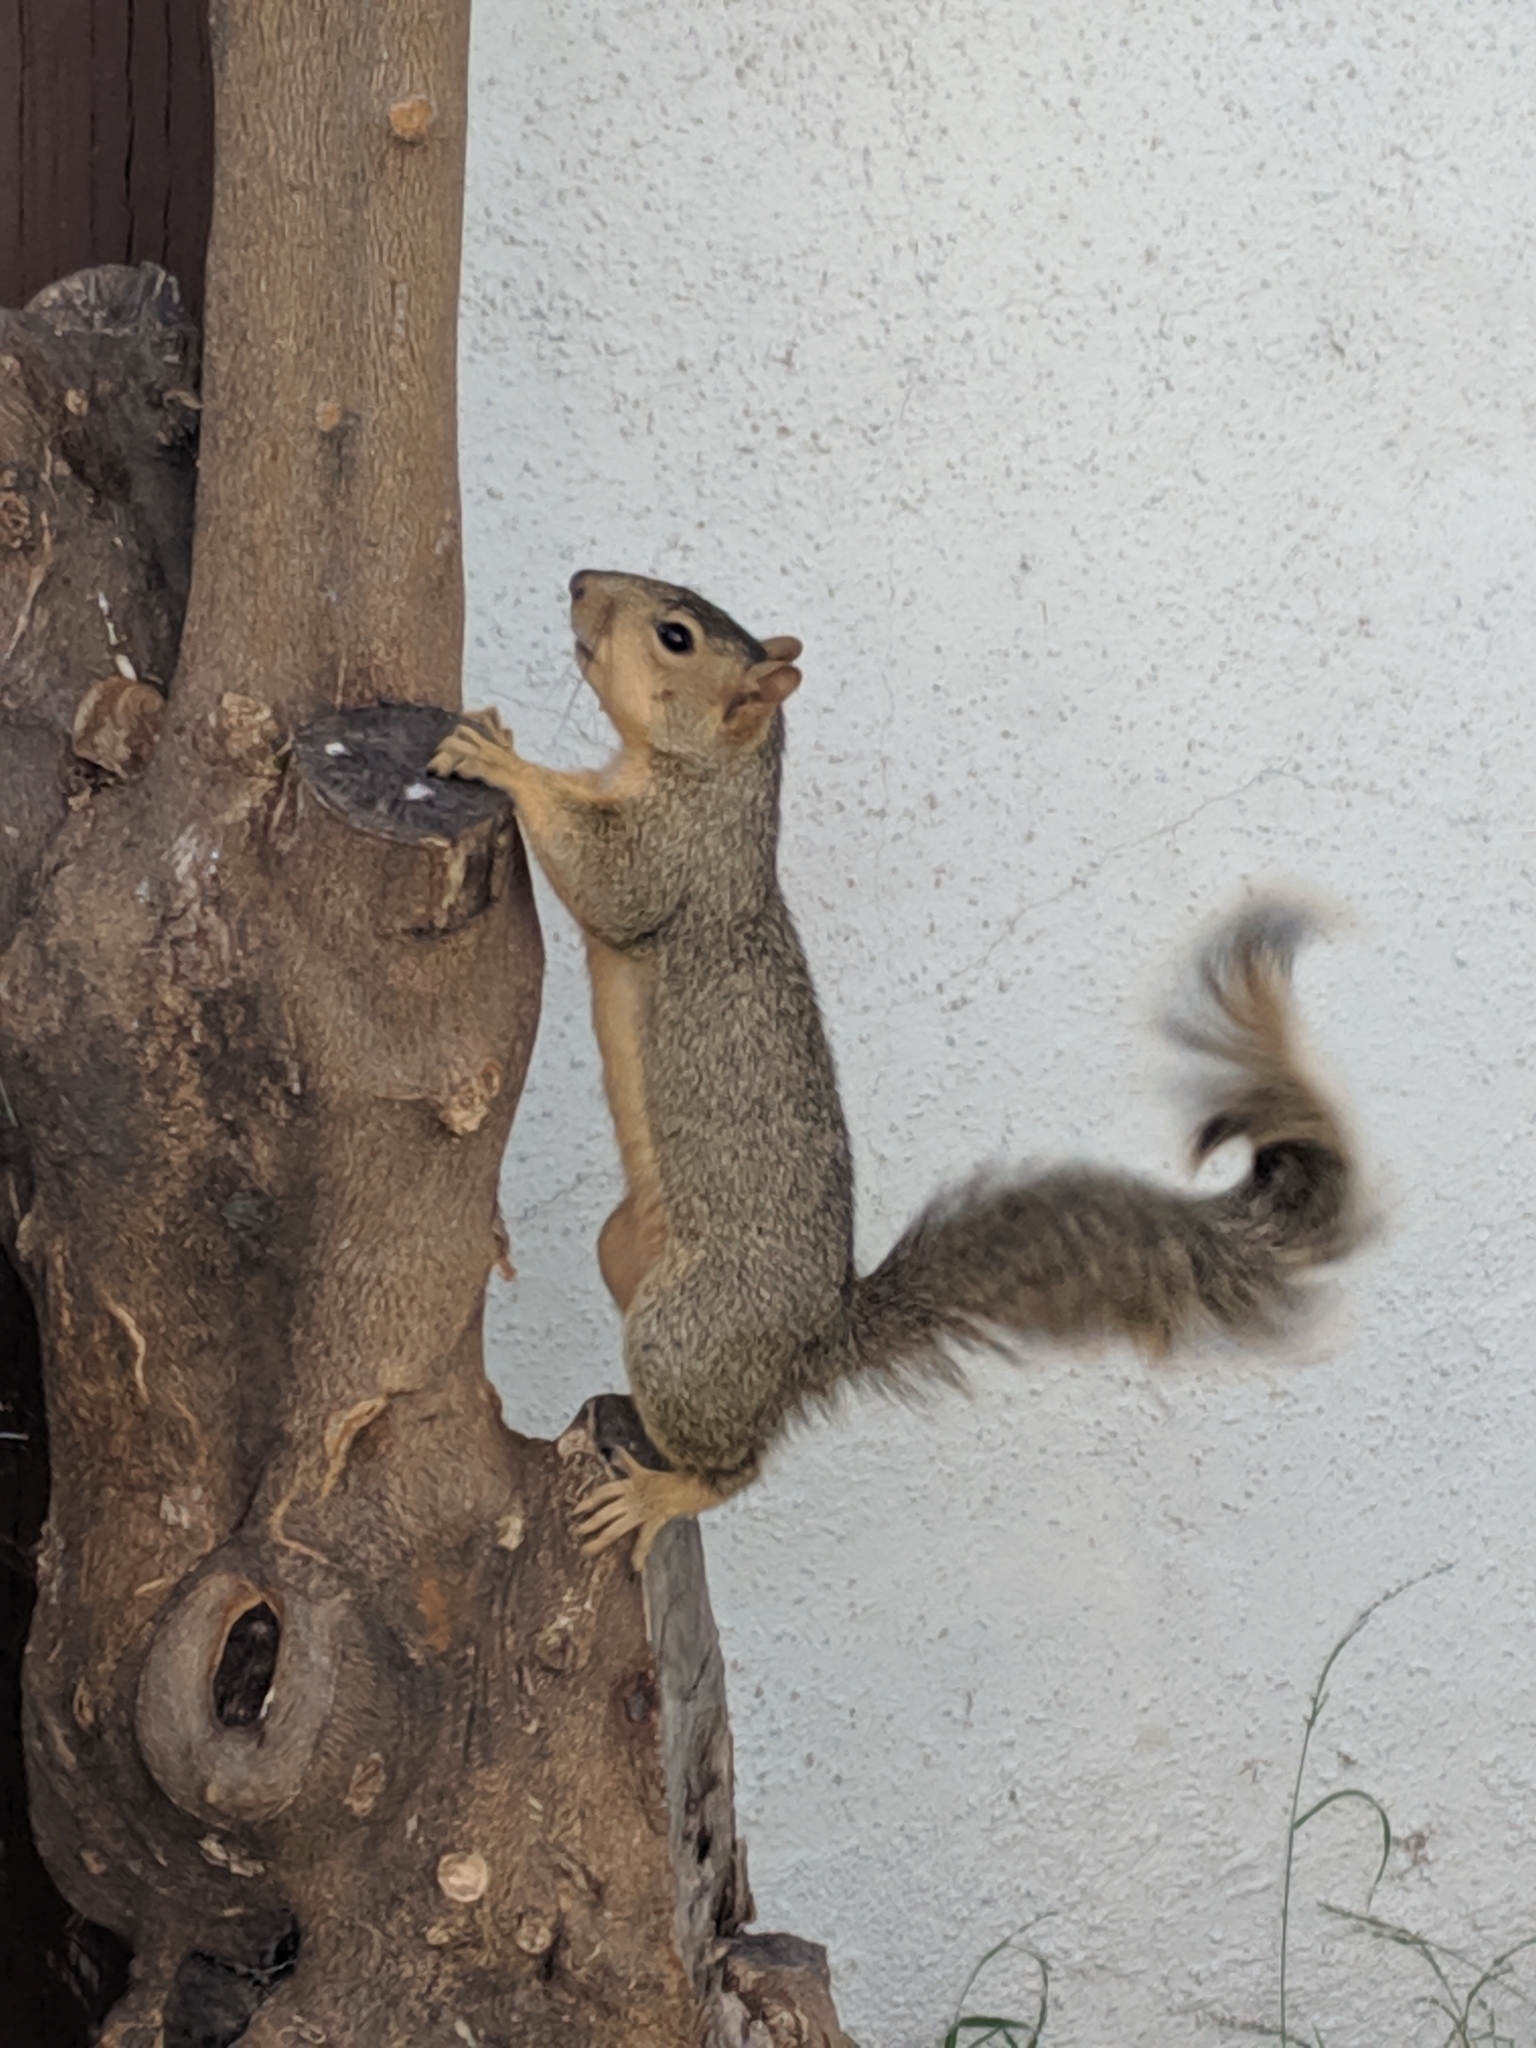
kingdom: Animalia
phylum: Chordata
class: Mammalia
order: Rodentia
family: Sciuridae
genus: Sciurus
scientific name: Sciurus niger
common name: Fox squirrel
